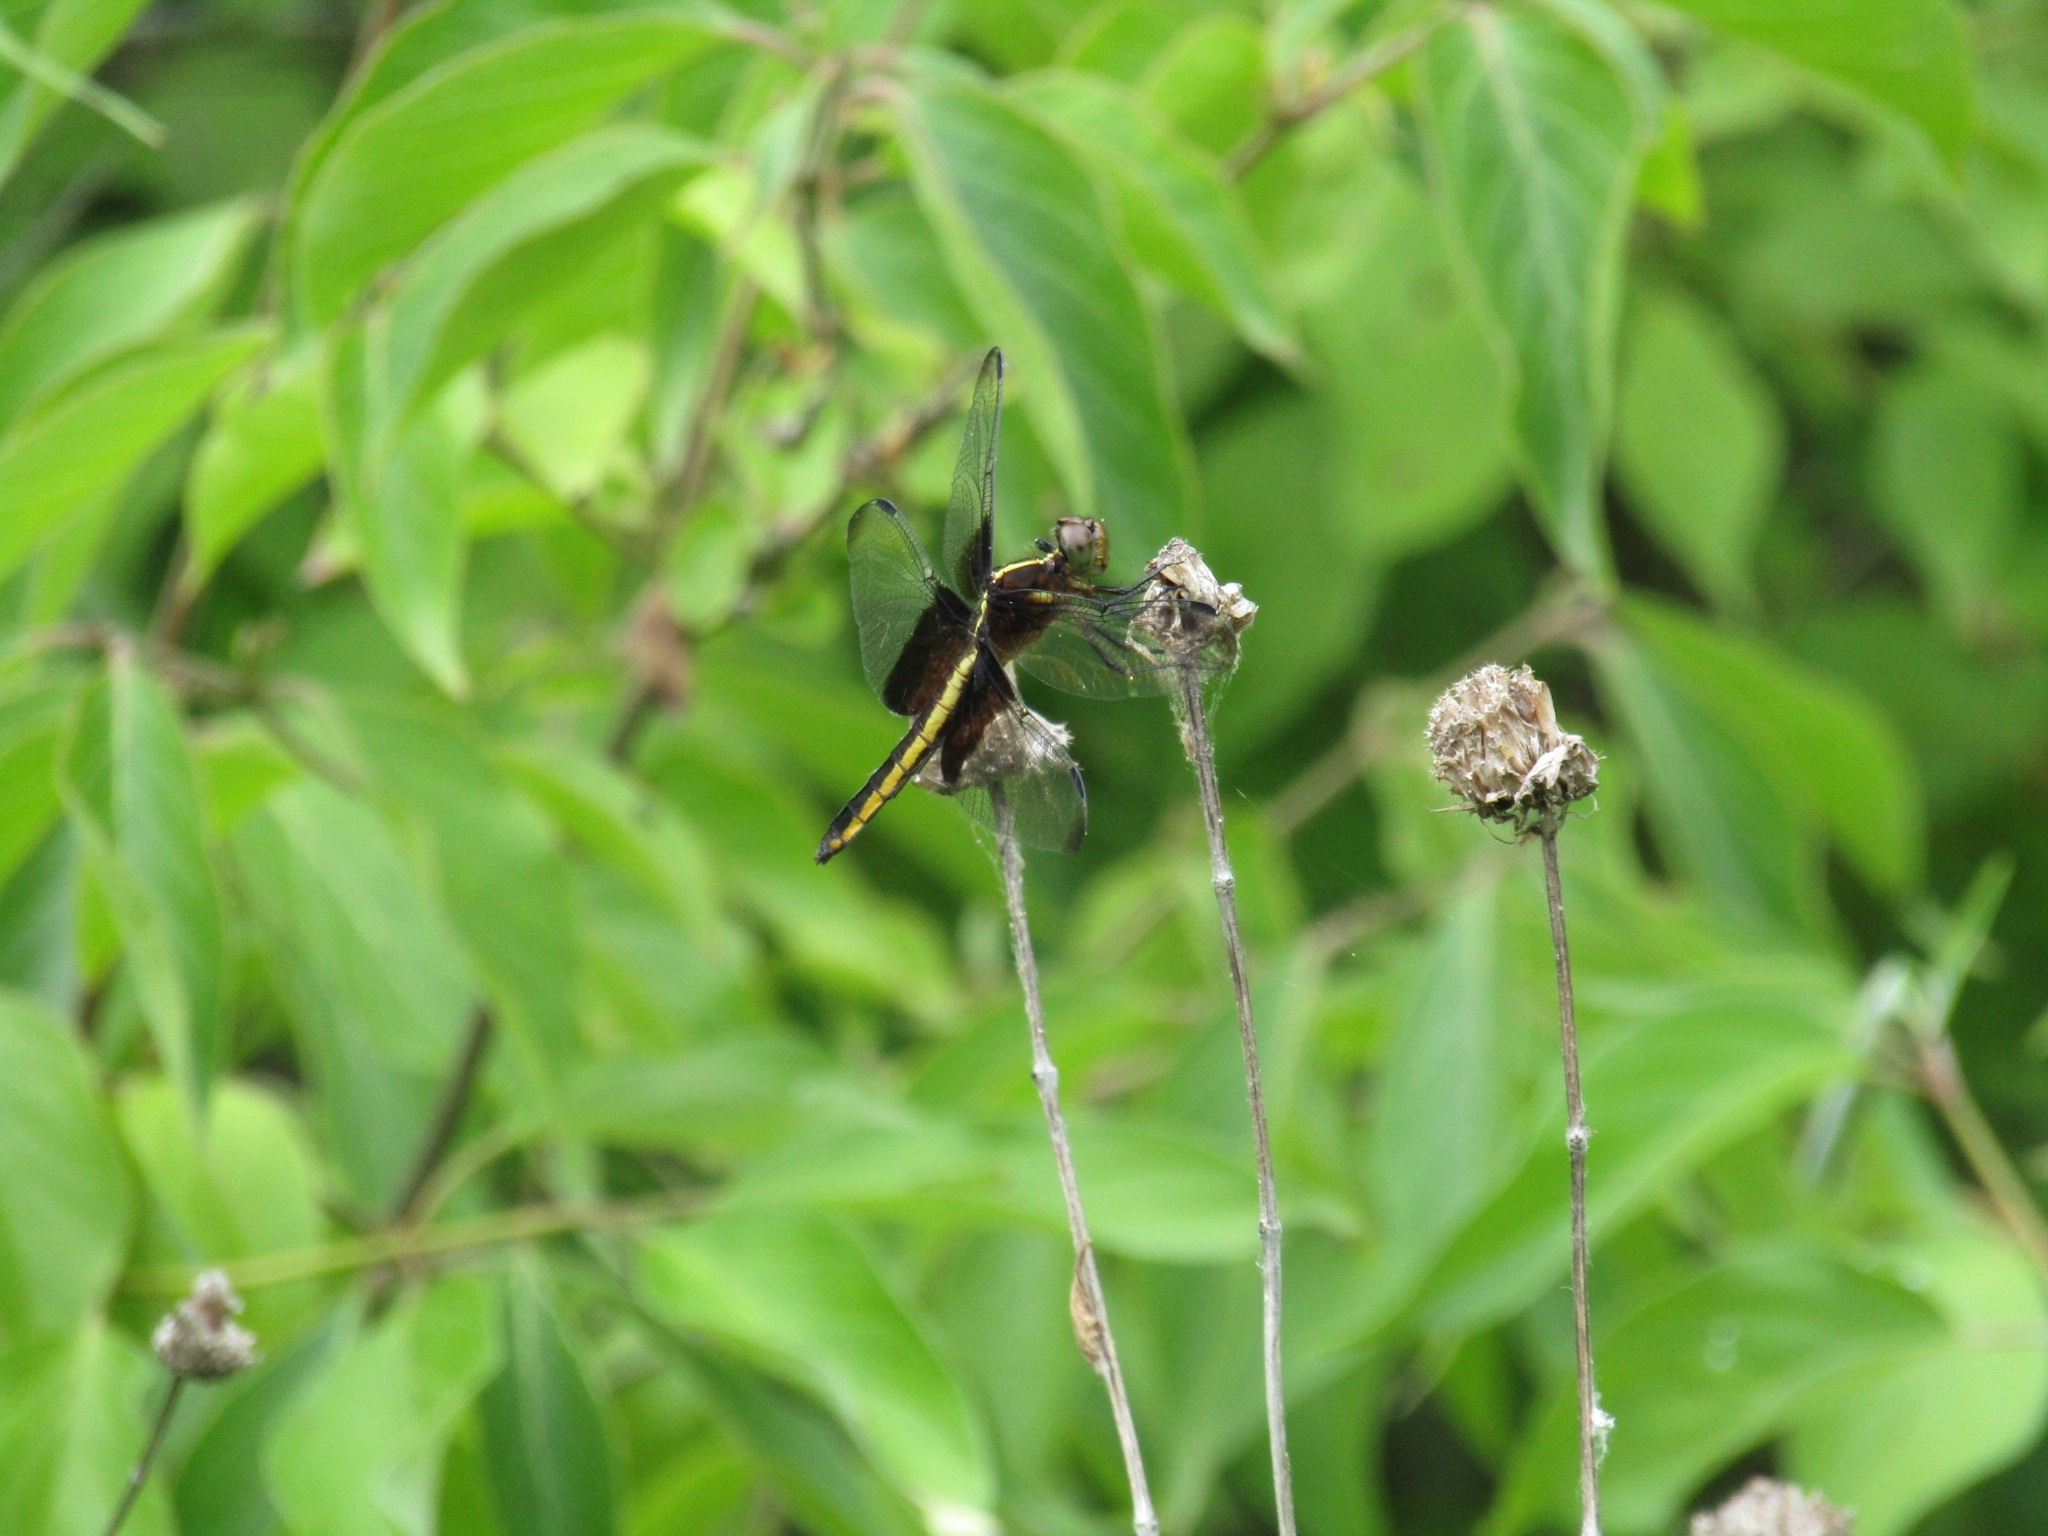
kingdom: Animalia
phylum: Arthropoda
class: Insecta
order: Odonata
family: Libellulidae
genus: Libellula
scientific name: Libellula luctuosa
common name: Widow skimmer
